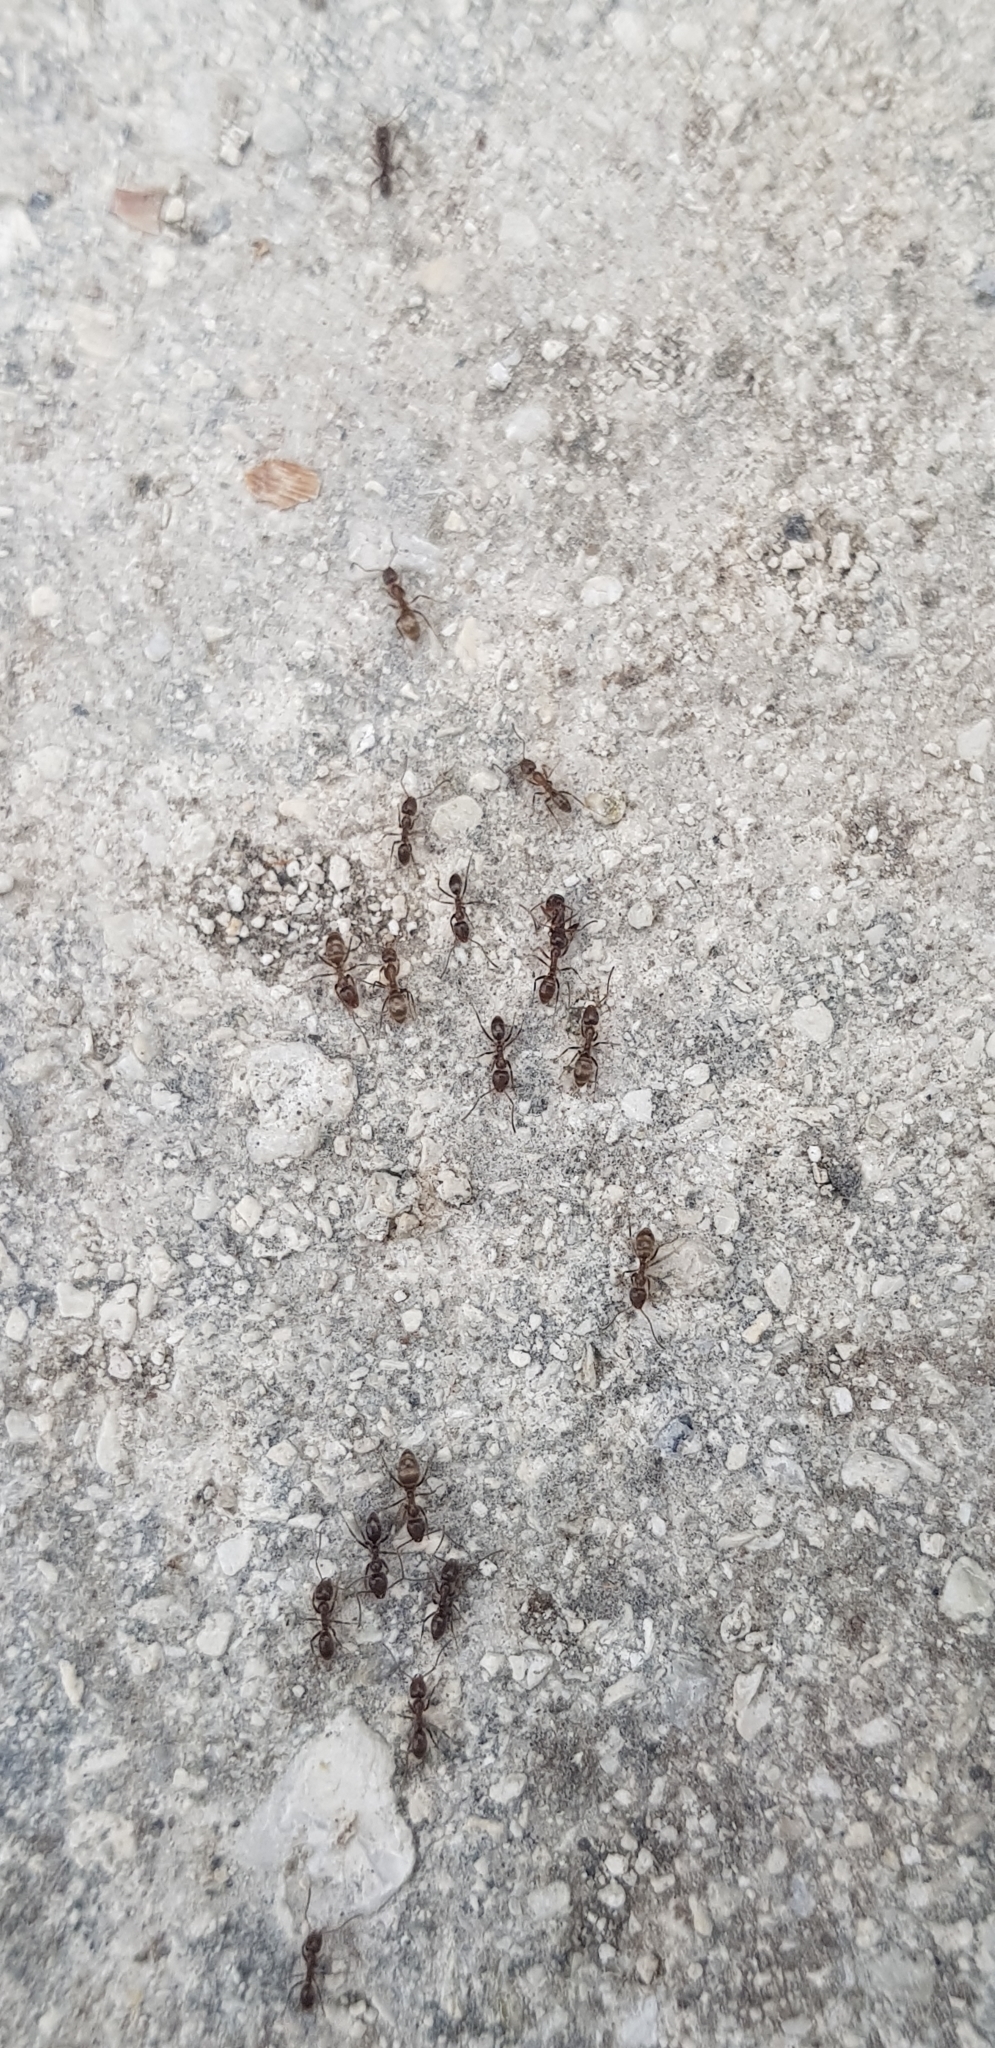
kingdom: Animalia
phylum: Arthropoda
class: Insecta
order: Hymenoptera
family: Formicidae
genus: Linepithema
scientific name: Linepithema humile
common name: Argentine ant
